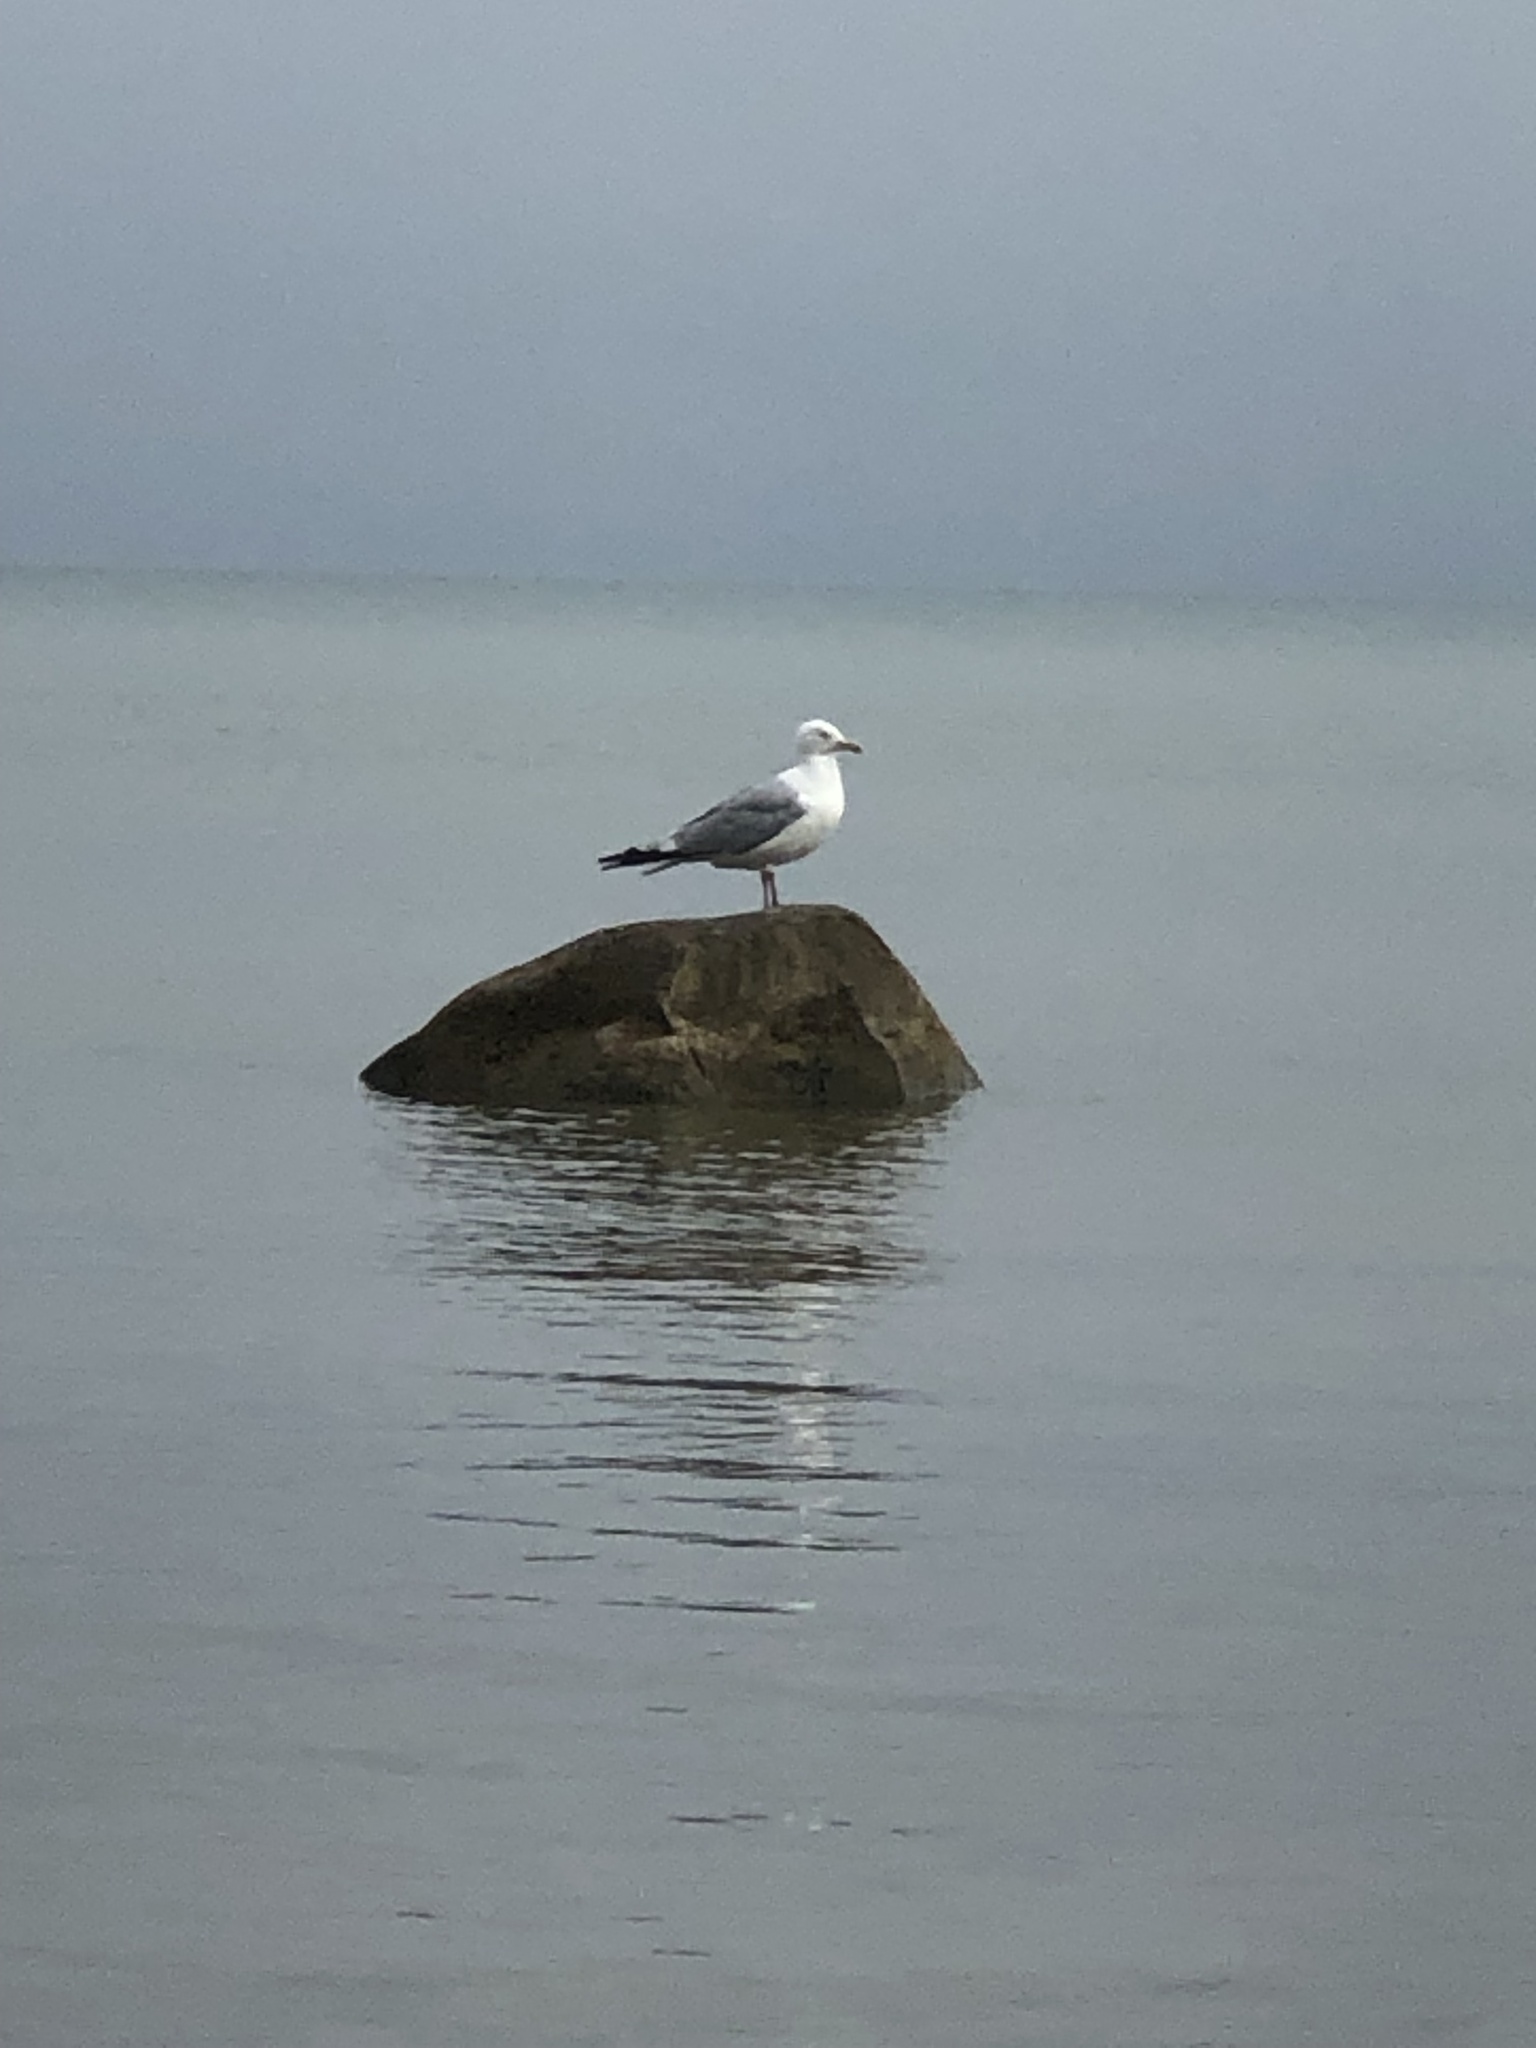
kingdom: Animalia
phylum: Chordata
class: Aves
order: Charadriiformes
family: Laridae
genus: Larus
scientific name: Larus delawarensis
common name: Ring-billed gull
